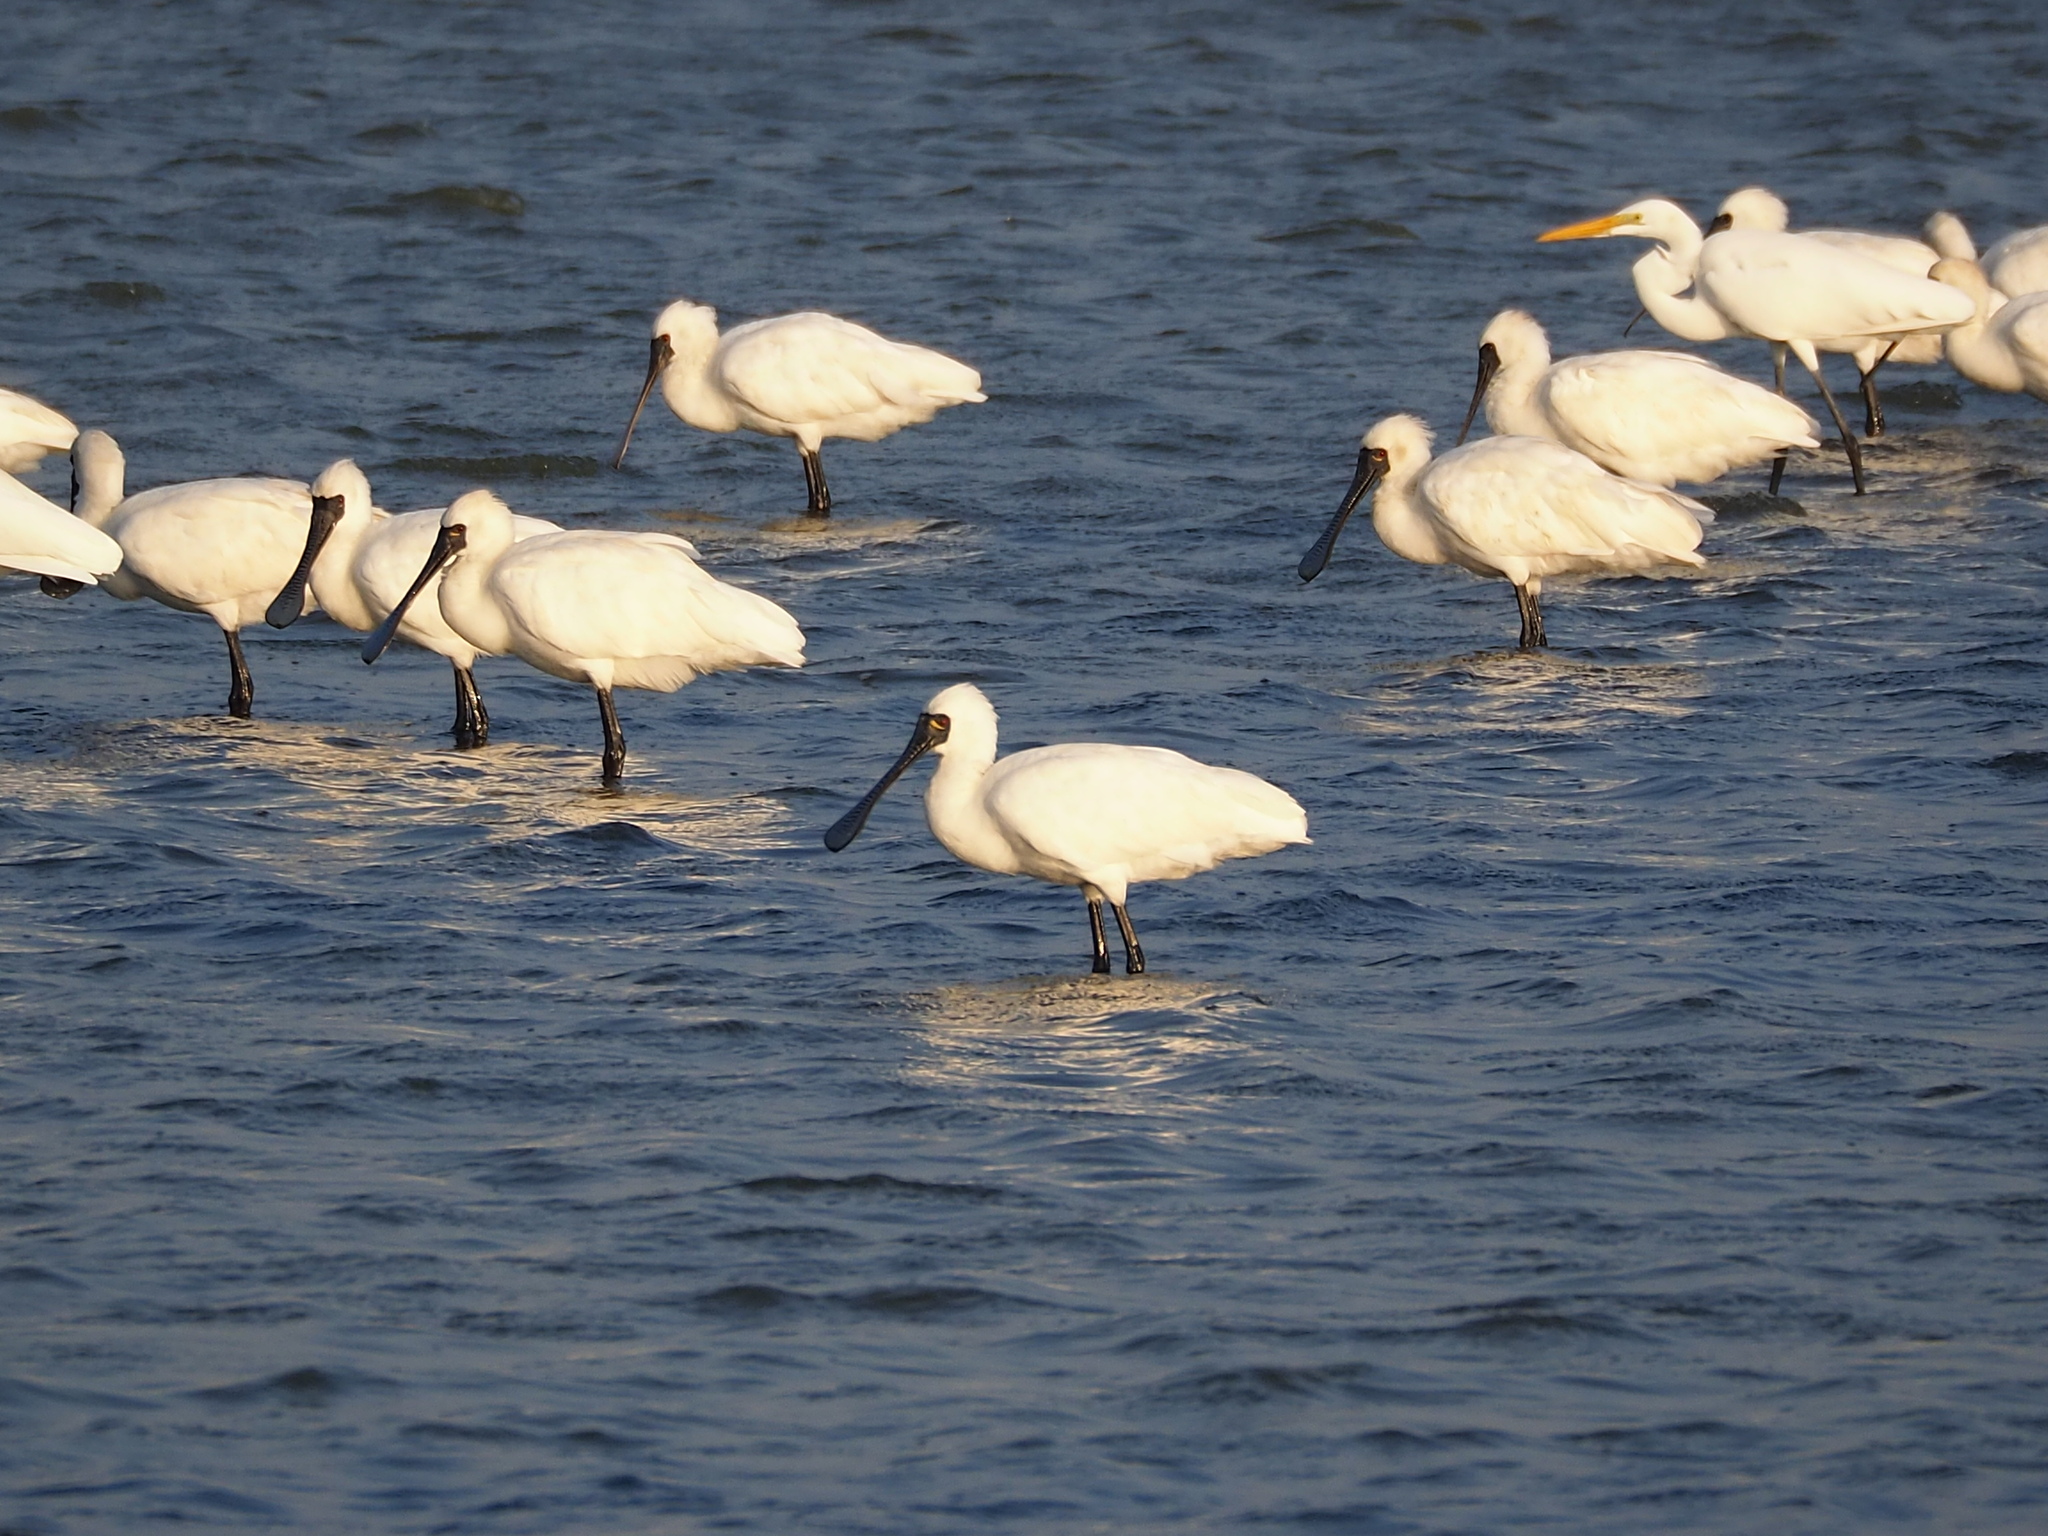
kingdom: Animalia
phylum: Chordata
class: Aves
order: Pelecaniformes
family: Threskiornithidae
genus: Platalea
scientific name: Platalea minor
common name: Black-faced spoonbill
